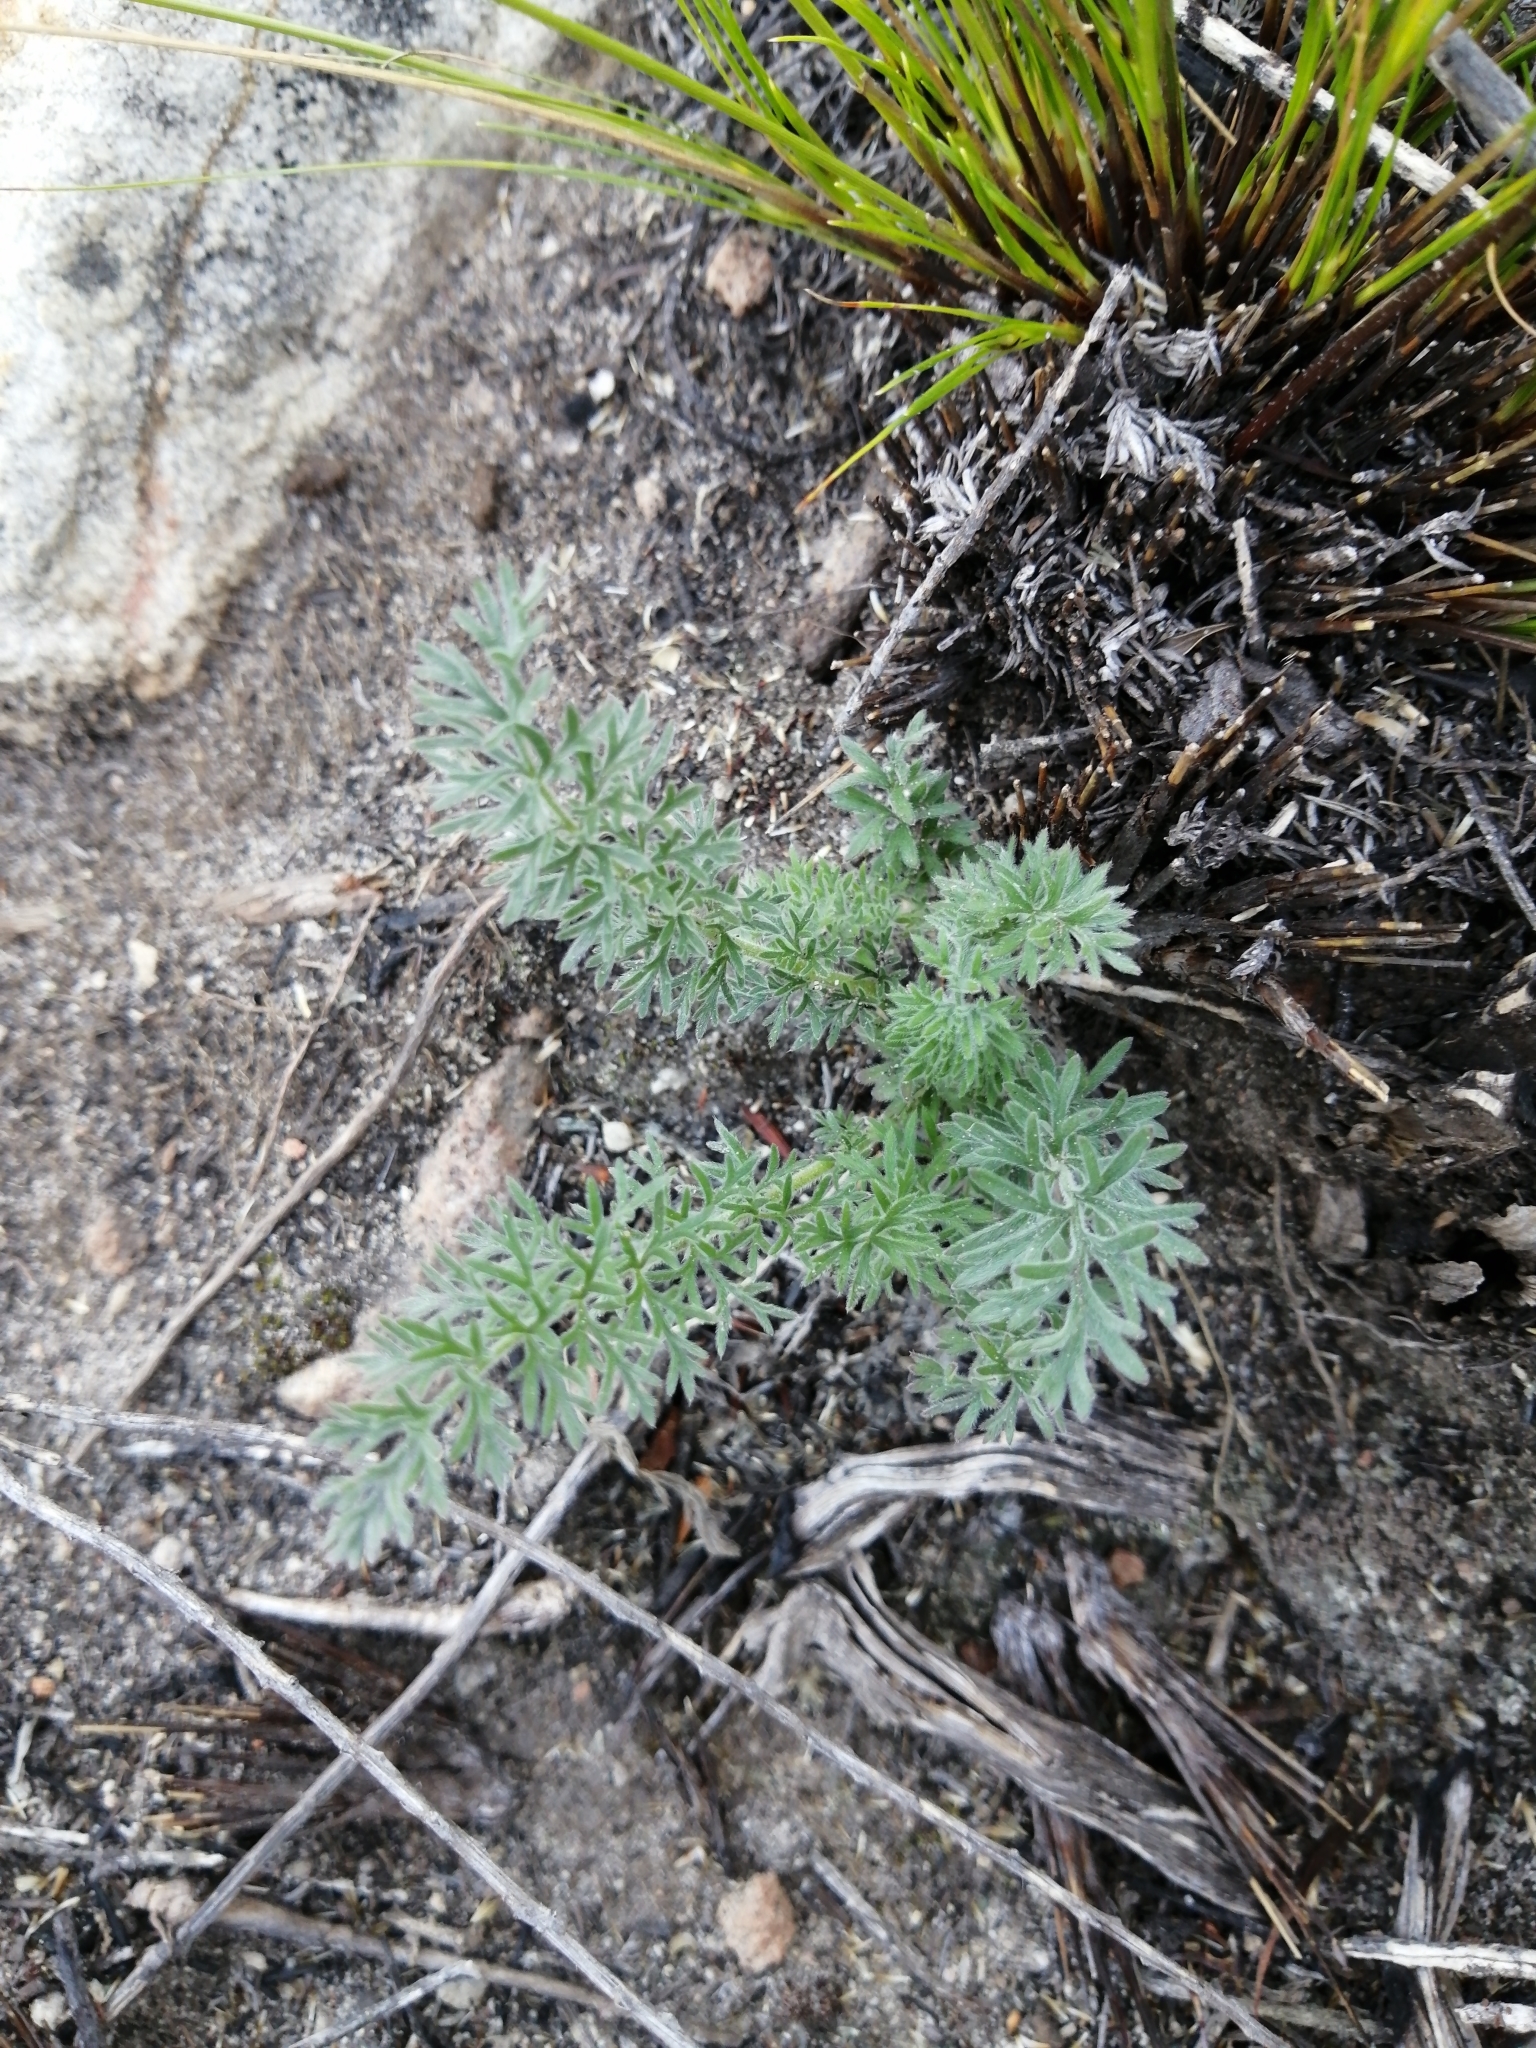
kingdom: Plantae
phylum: Tracheophyta
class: Magnoliopsida
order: Geraniales
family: Geraniaceae
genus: Pelargonium
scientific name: Pelargonium rapaceum
